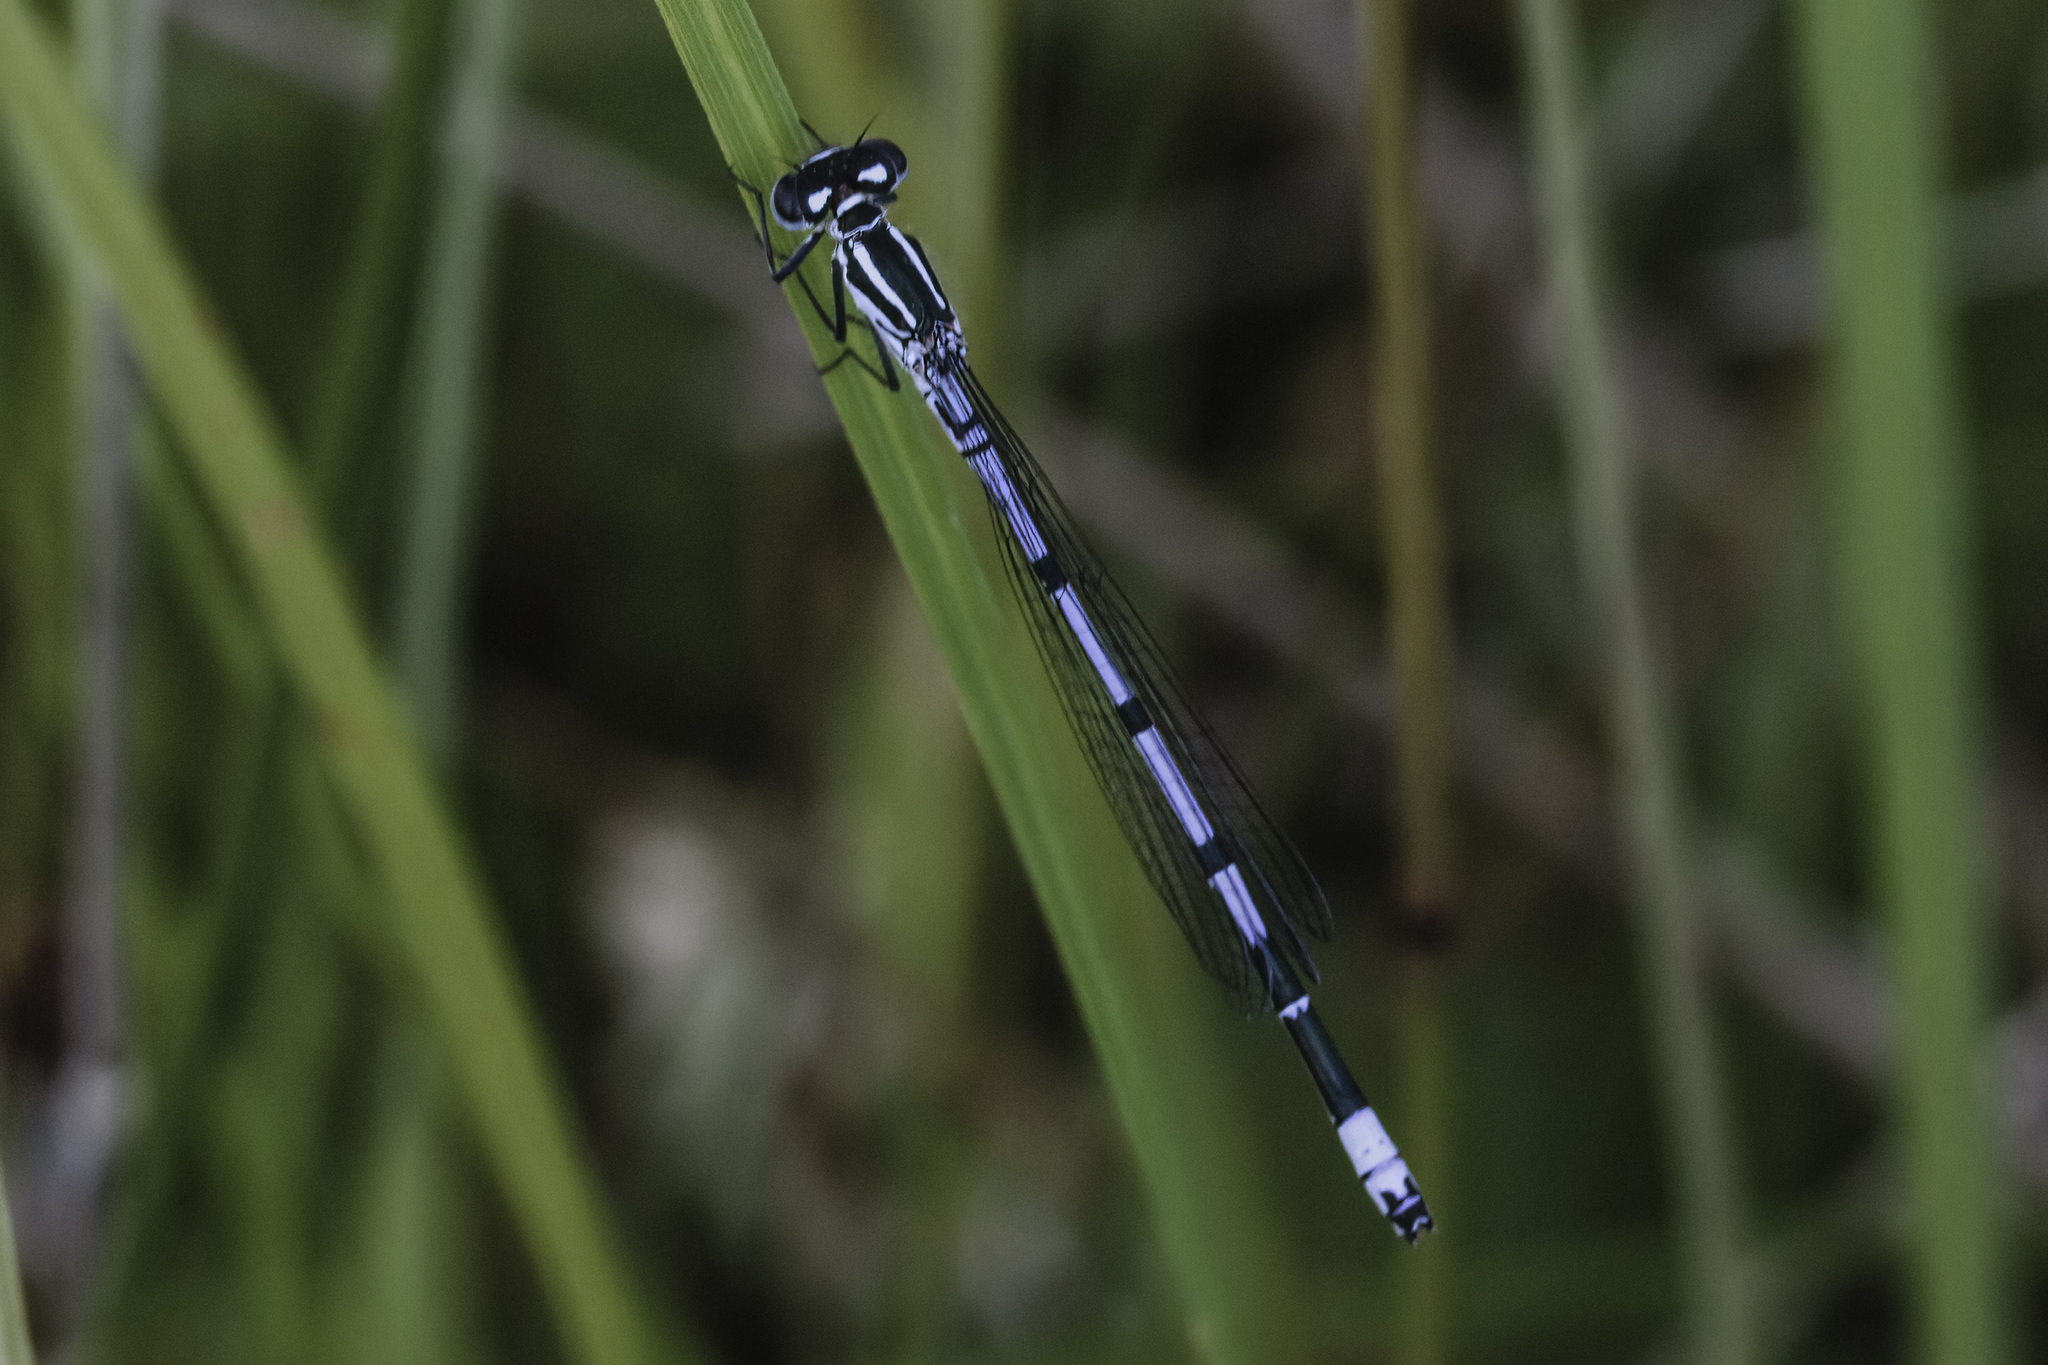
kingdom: Animalia
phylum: Arthropoda
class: Insecta
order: Odonata
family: Coenagrionidae
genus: Coenagrion
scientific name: Coenagrion puella
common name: Azure damselfly
